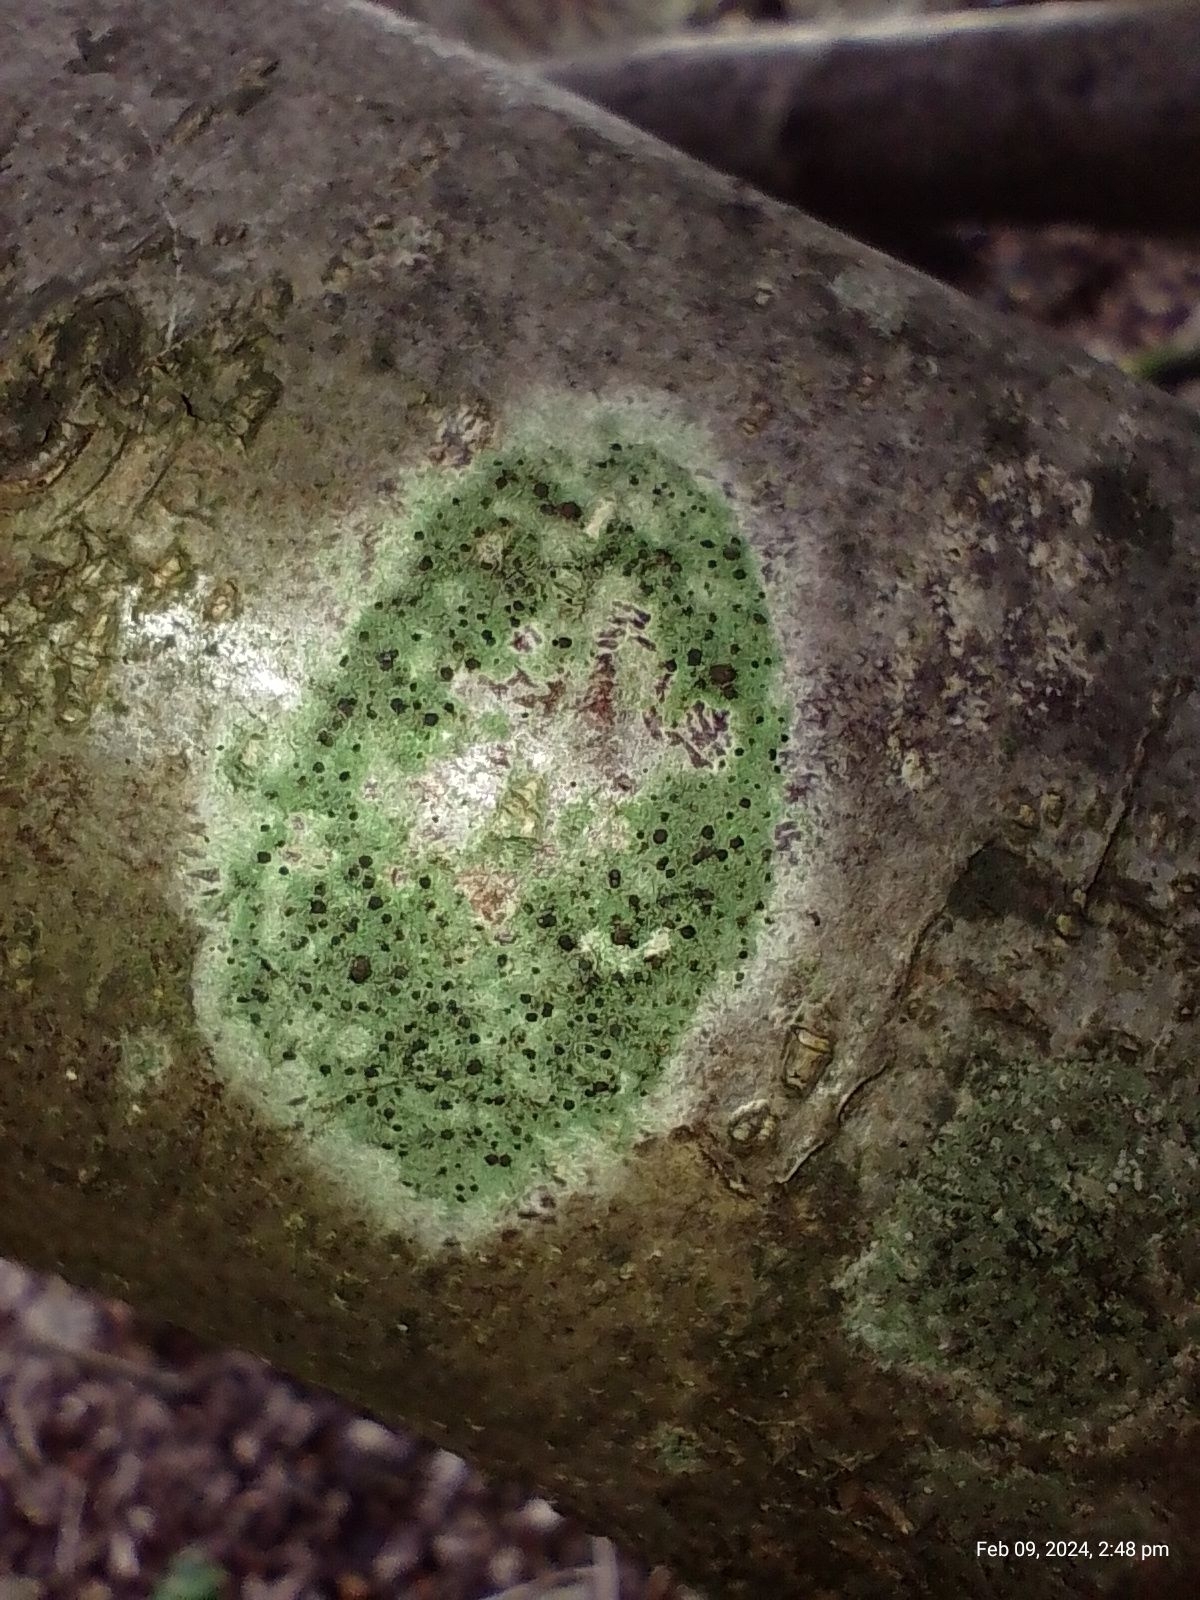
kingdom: Fungi
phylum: Ascomycota
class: Lecanoromycetes
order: Lecanorales
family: Lecanoraceae
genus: Lecidella
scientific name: Lecidella elaeochroma
